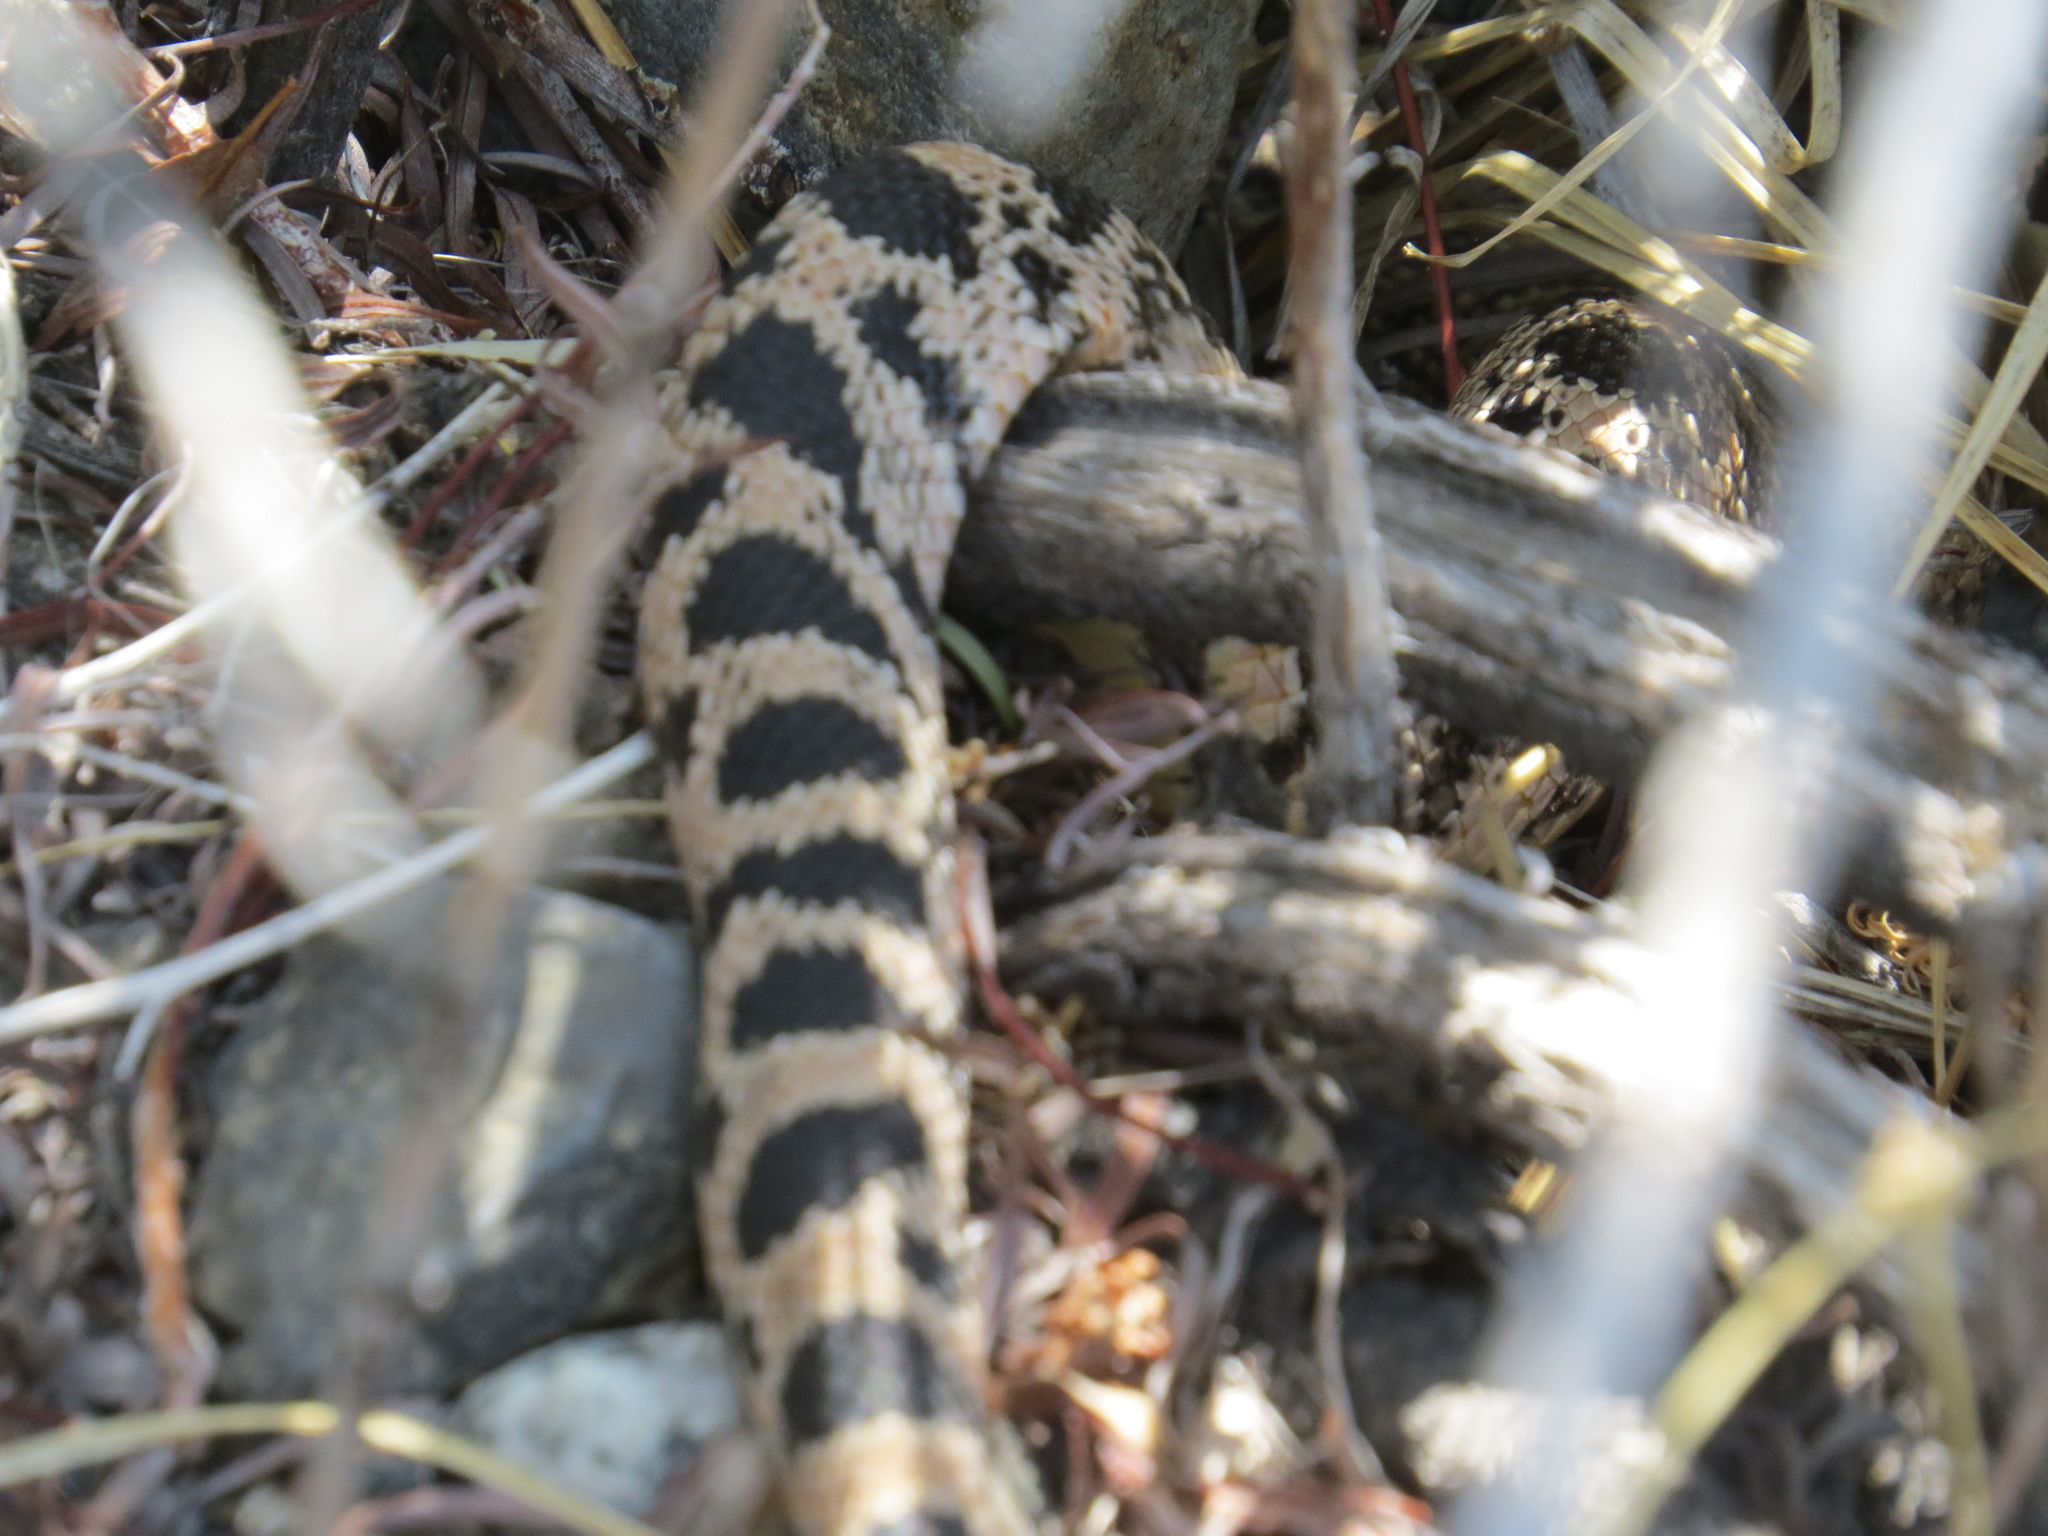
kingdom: Animalia
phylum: Chordata
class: Squamata
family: Colubridae
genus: Pituophis
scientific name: Pituophis catenifer
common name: Gopher snake
